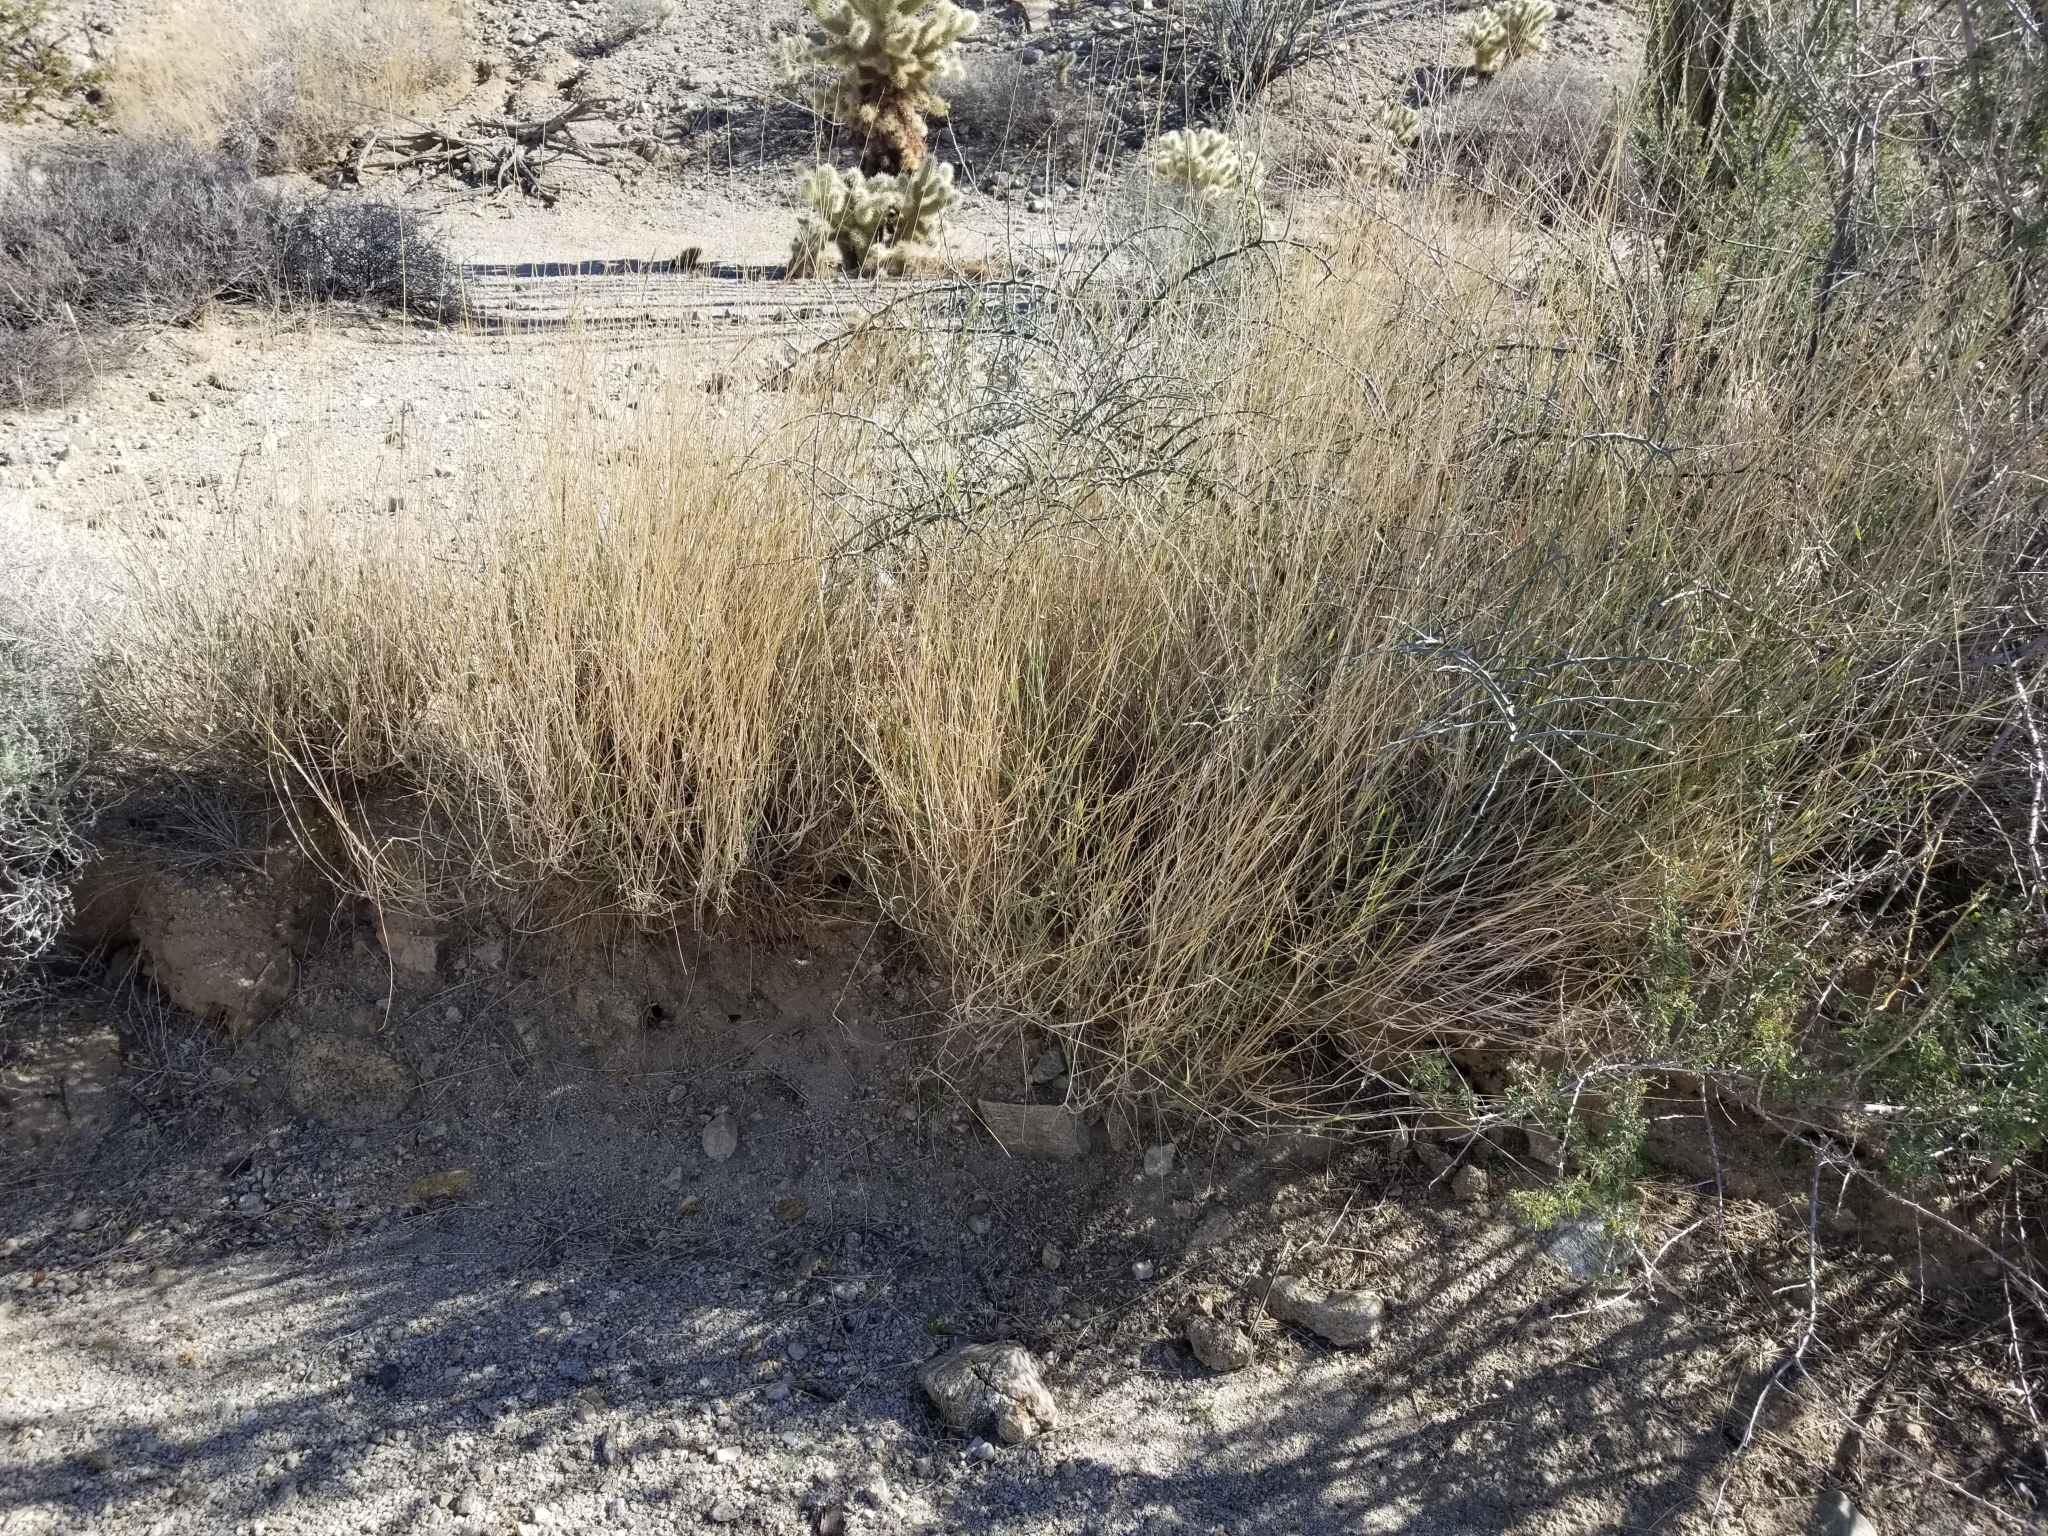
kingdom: Plantae
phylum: Tracheophyta
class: Liliopsida
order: Poales
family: Poaceae
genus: Hilaria
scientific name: Hilaria rigida
